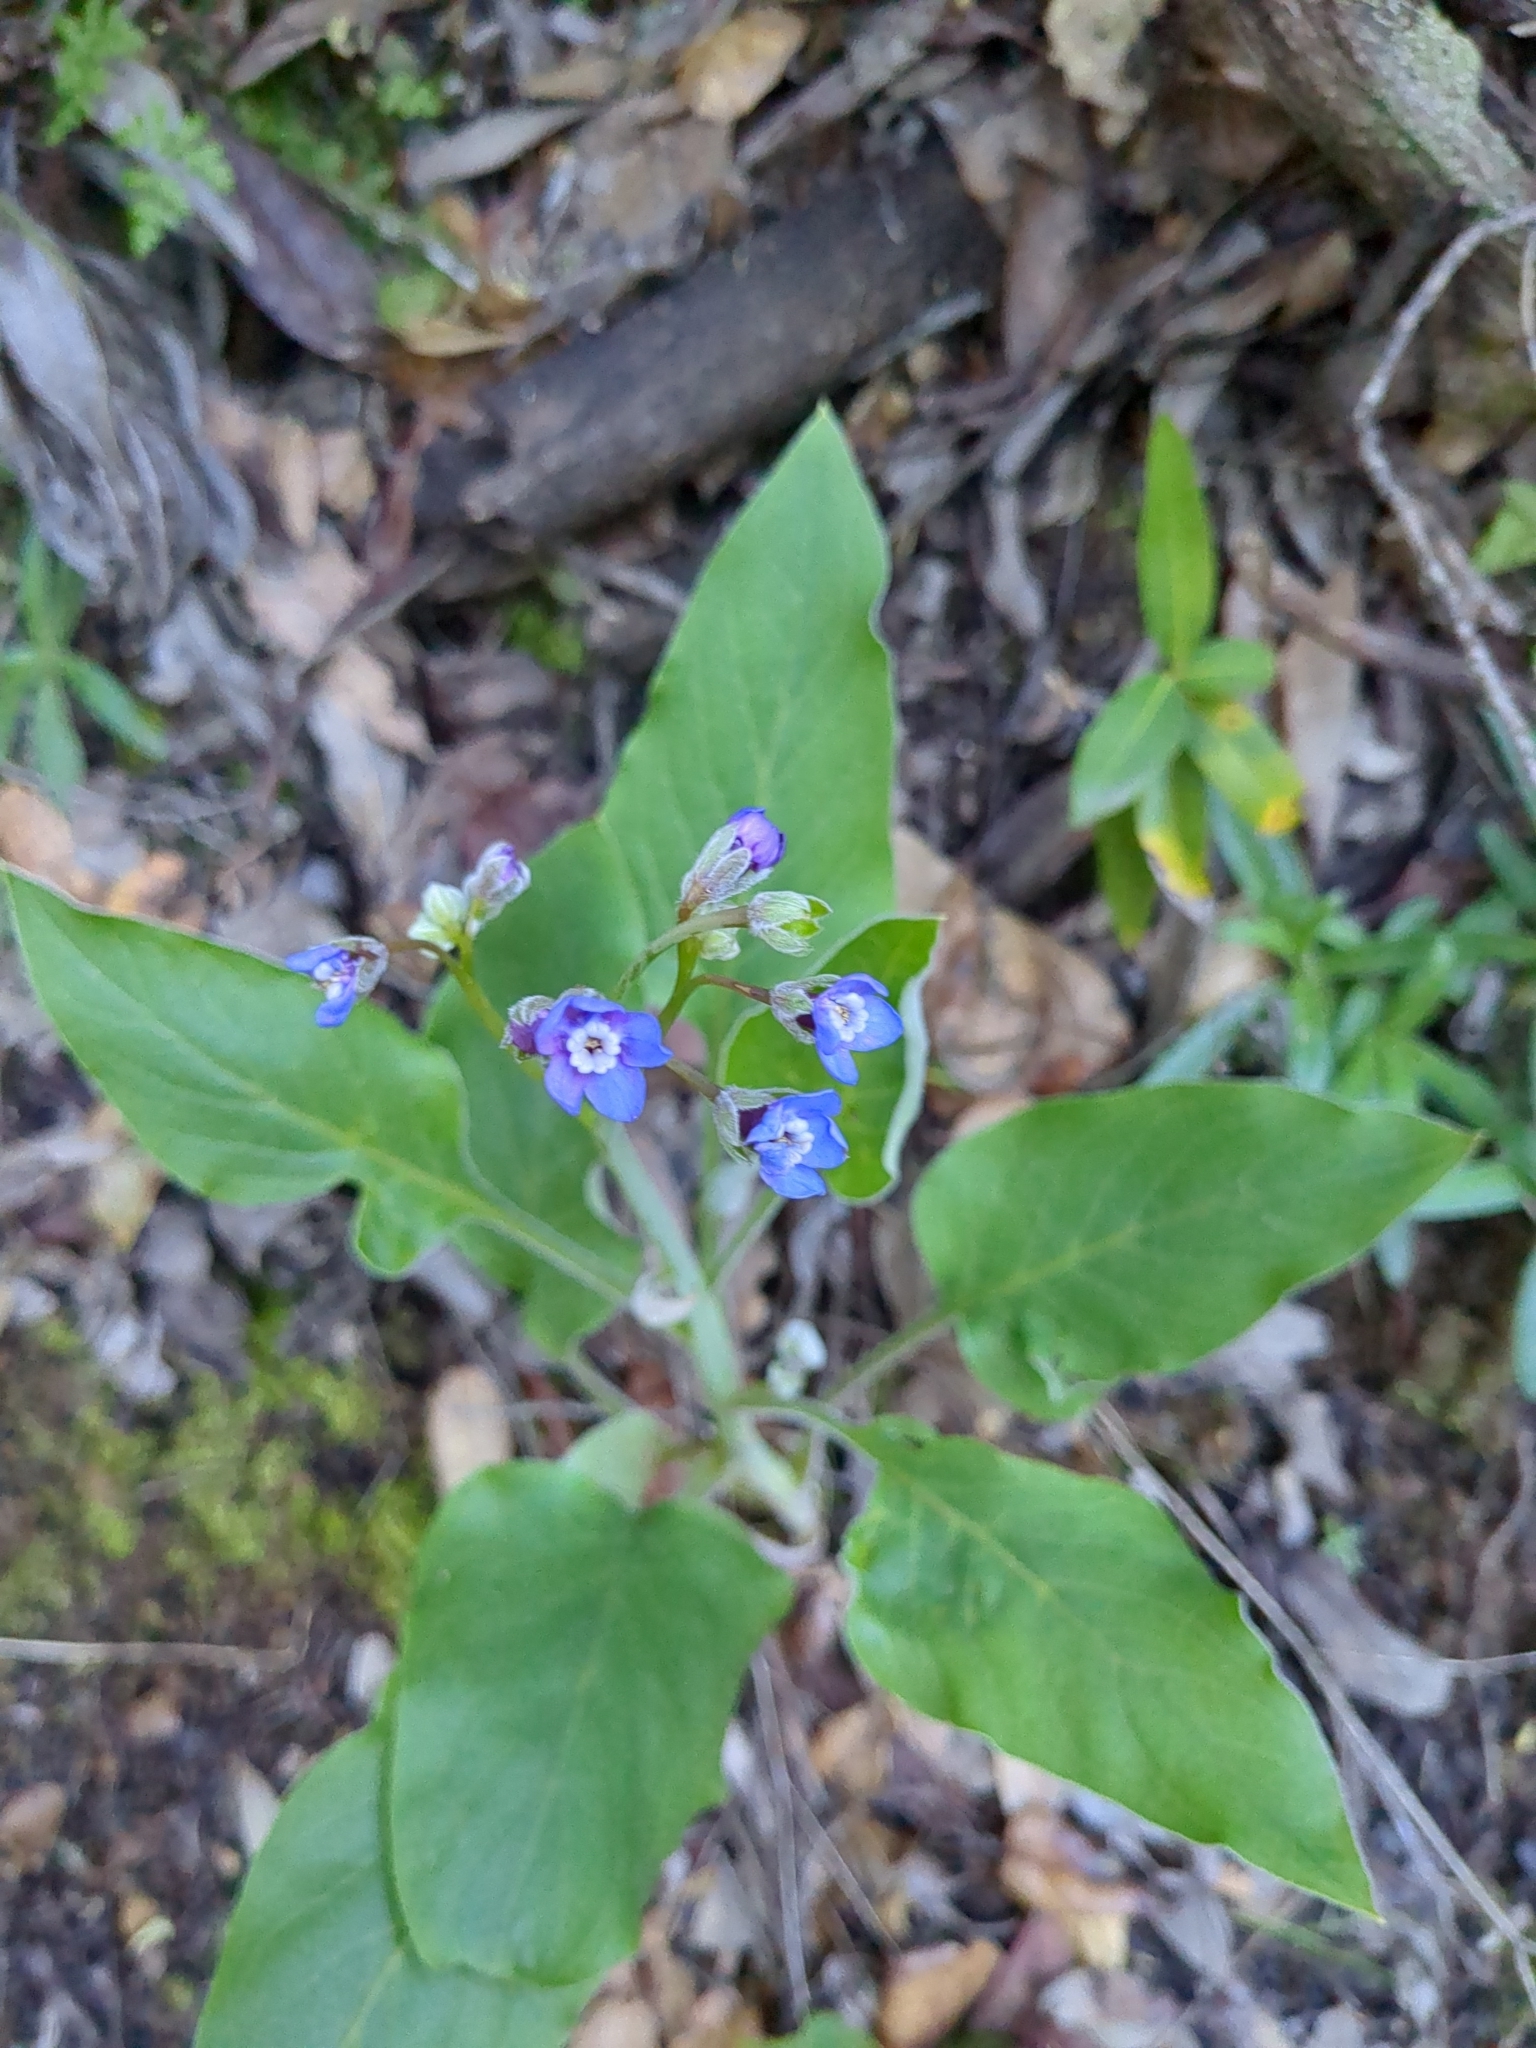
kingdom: Plantae
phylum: Tracheophyta
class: Magnoliopsida
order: Boraginales
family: Boraginaceae
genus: Adelinia
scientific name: Adelinia grande
